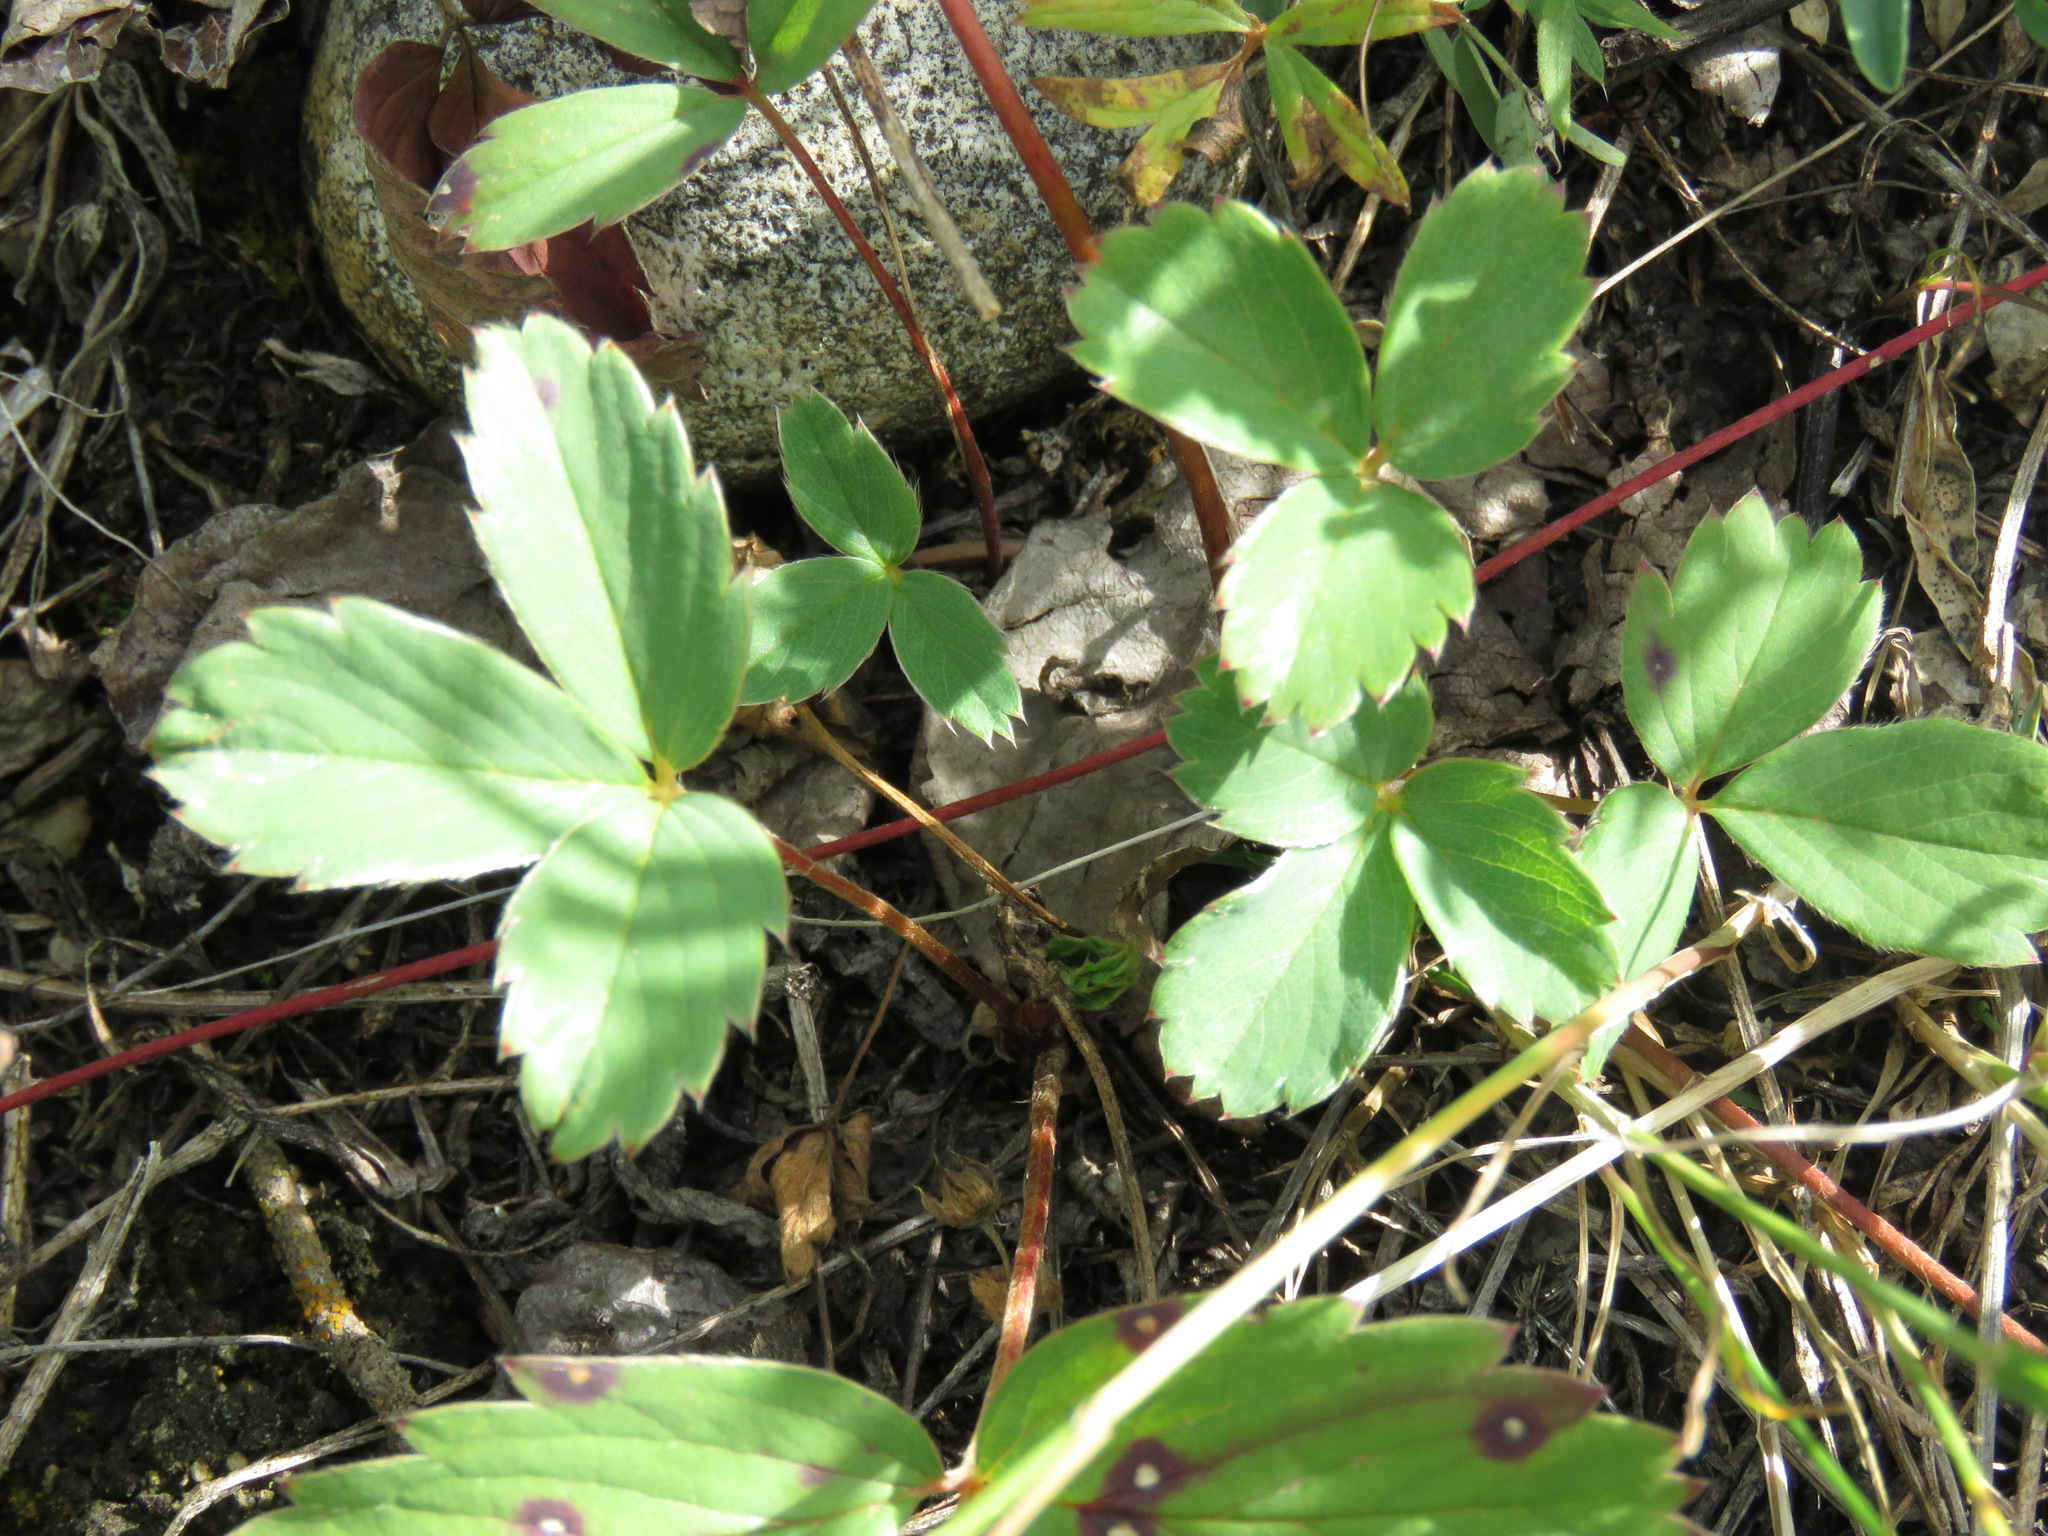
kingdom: Plantae
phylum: Tracheophyta
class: Magnoliopsida
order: Rosales
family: Rosaceae
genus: Fragaria
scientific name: Fragaria virginiana
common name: Thickleaved wild strawberry
